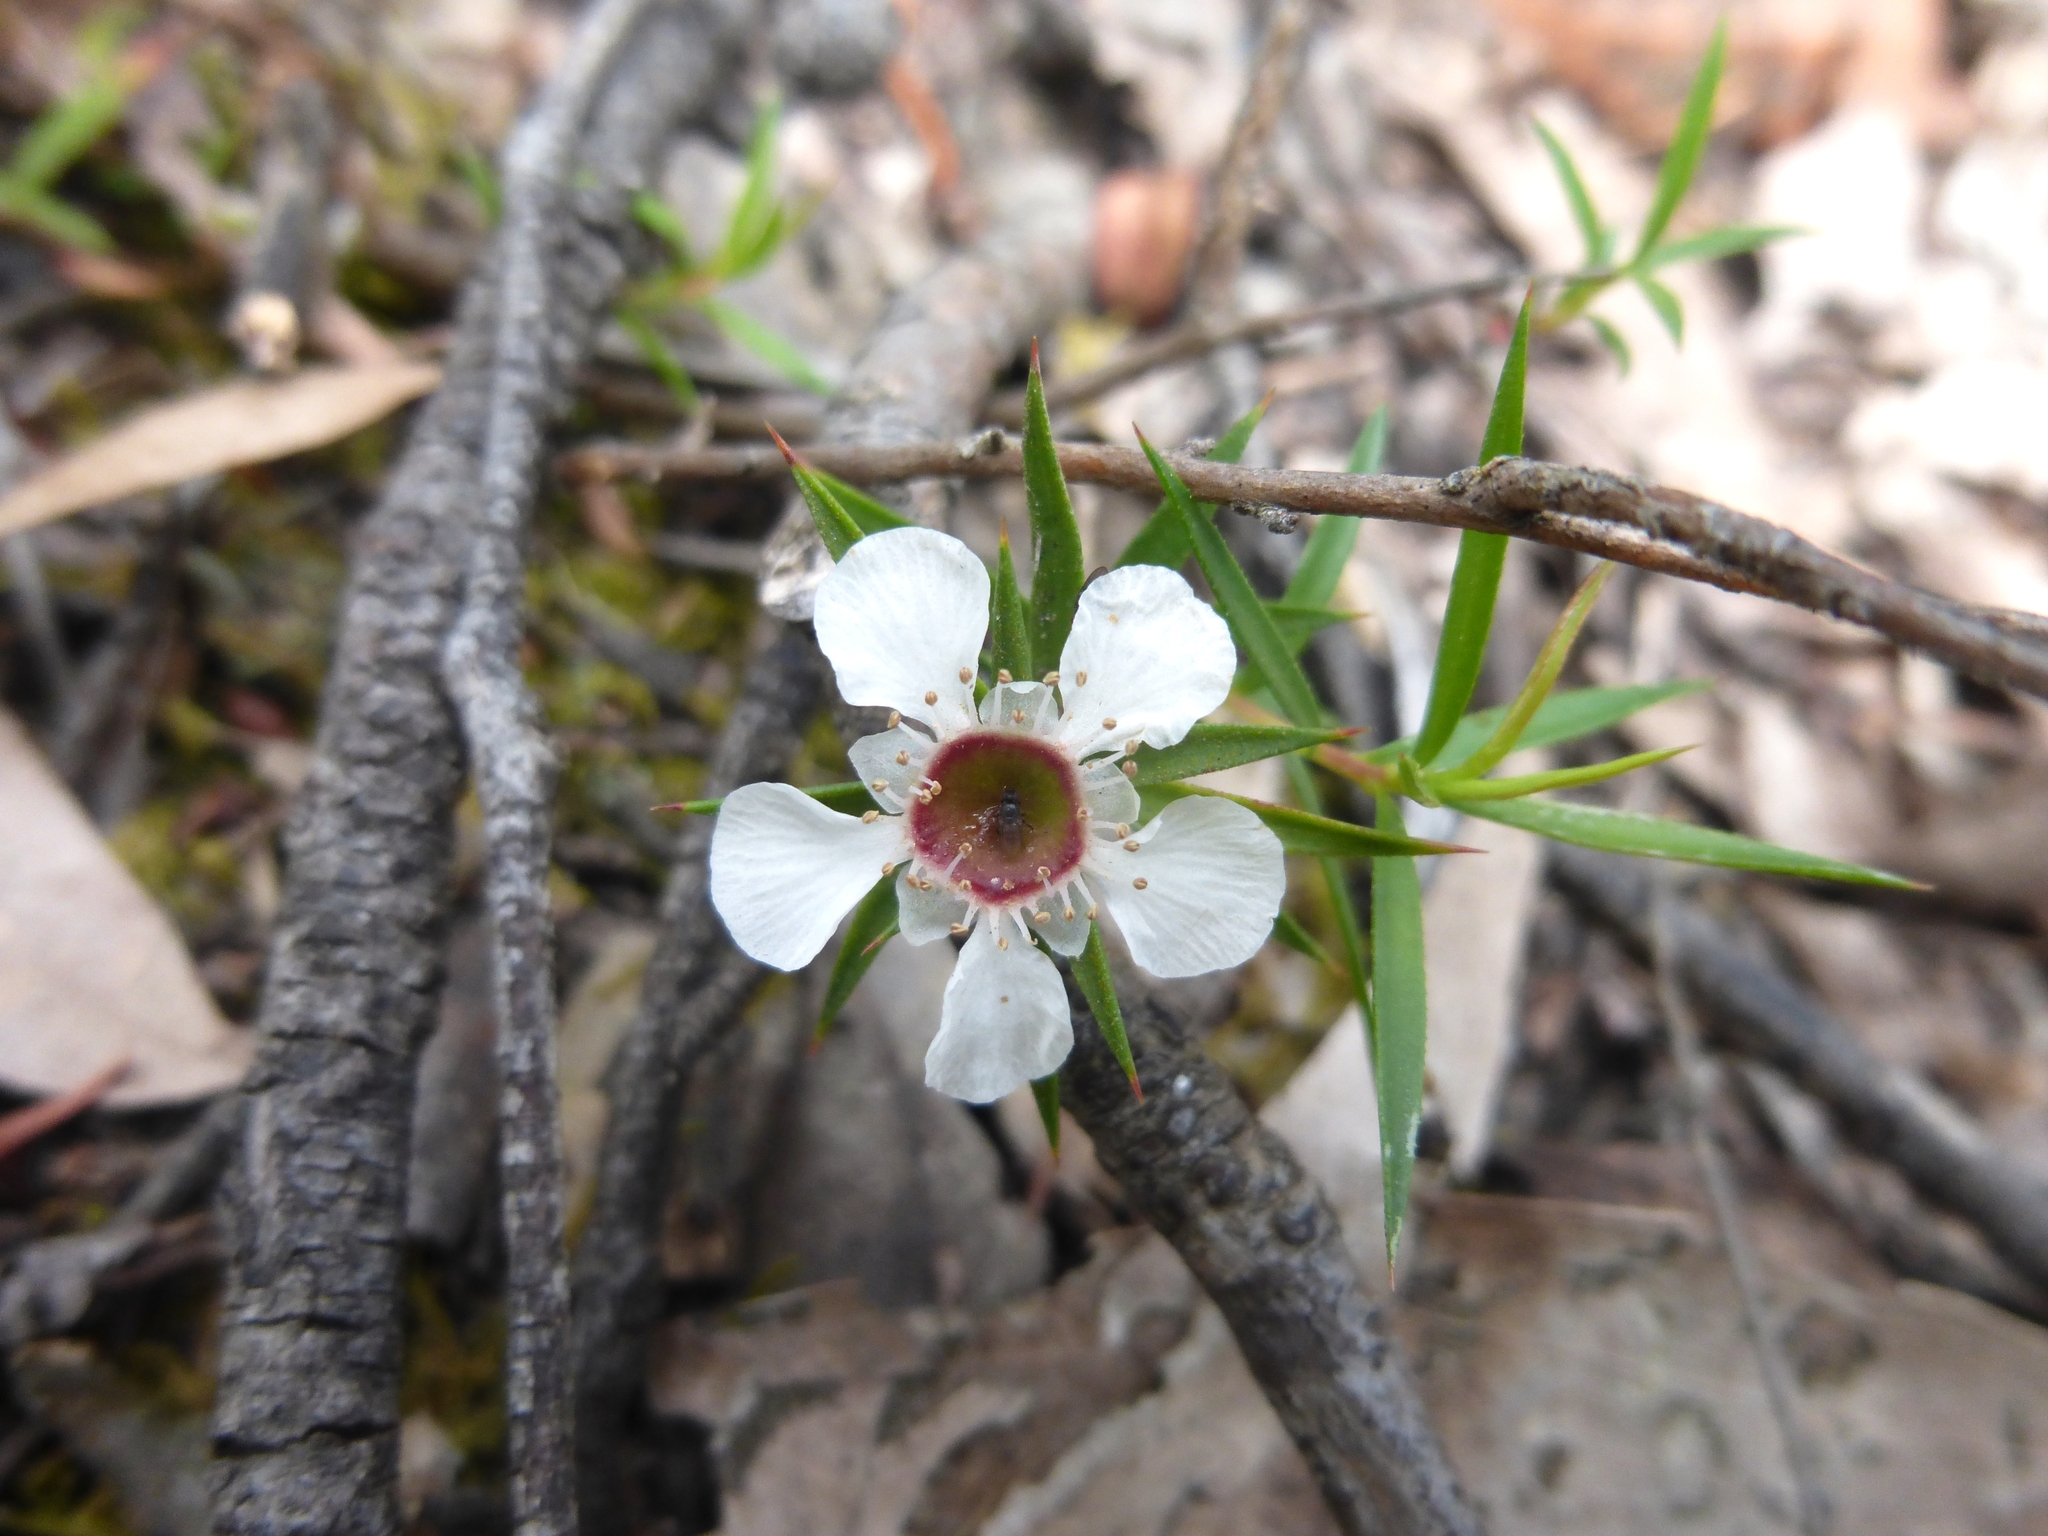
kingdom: Plantae
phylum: Tracheophyta
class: Magnoliopsida
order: Myrtales
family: Myrtaceae
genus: Leptospermum
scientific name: Leptospermum continentale
